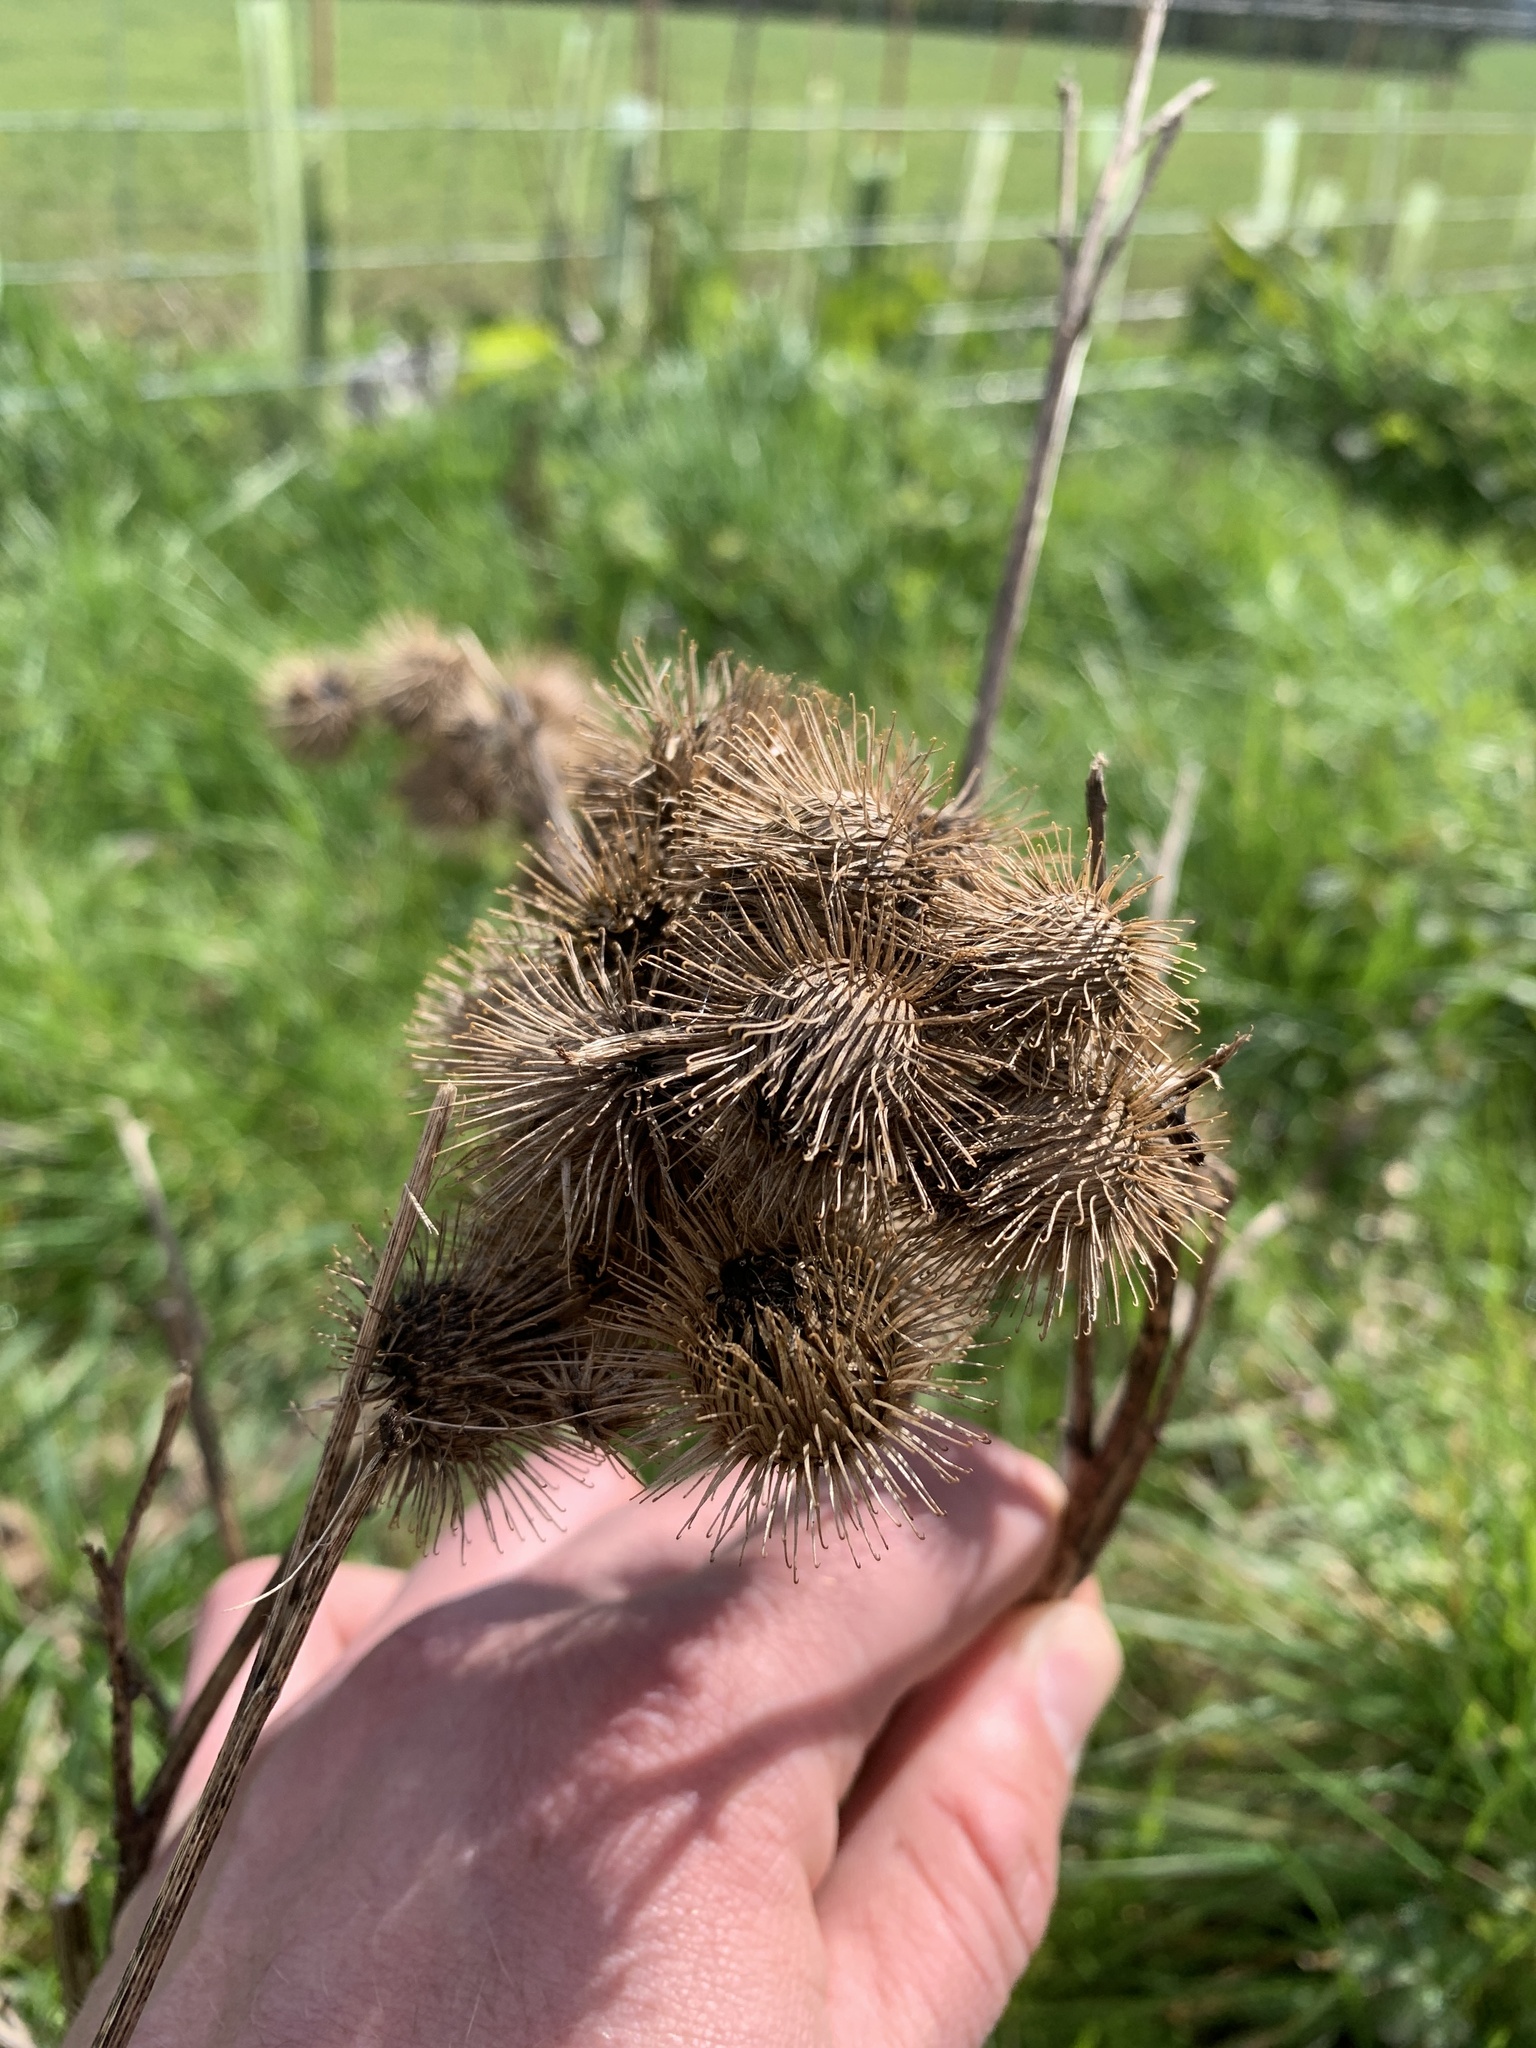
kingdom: Plantae
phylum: Tracheophyta
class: Magnoliopsida
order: Asterales
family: Asteraceae
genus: Arctium
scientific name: Arctium lappa
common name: Greater burdock
